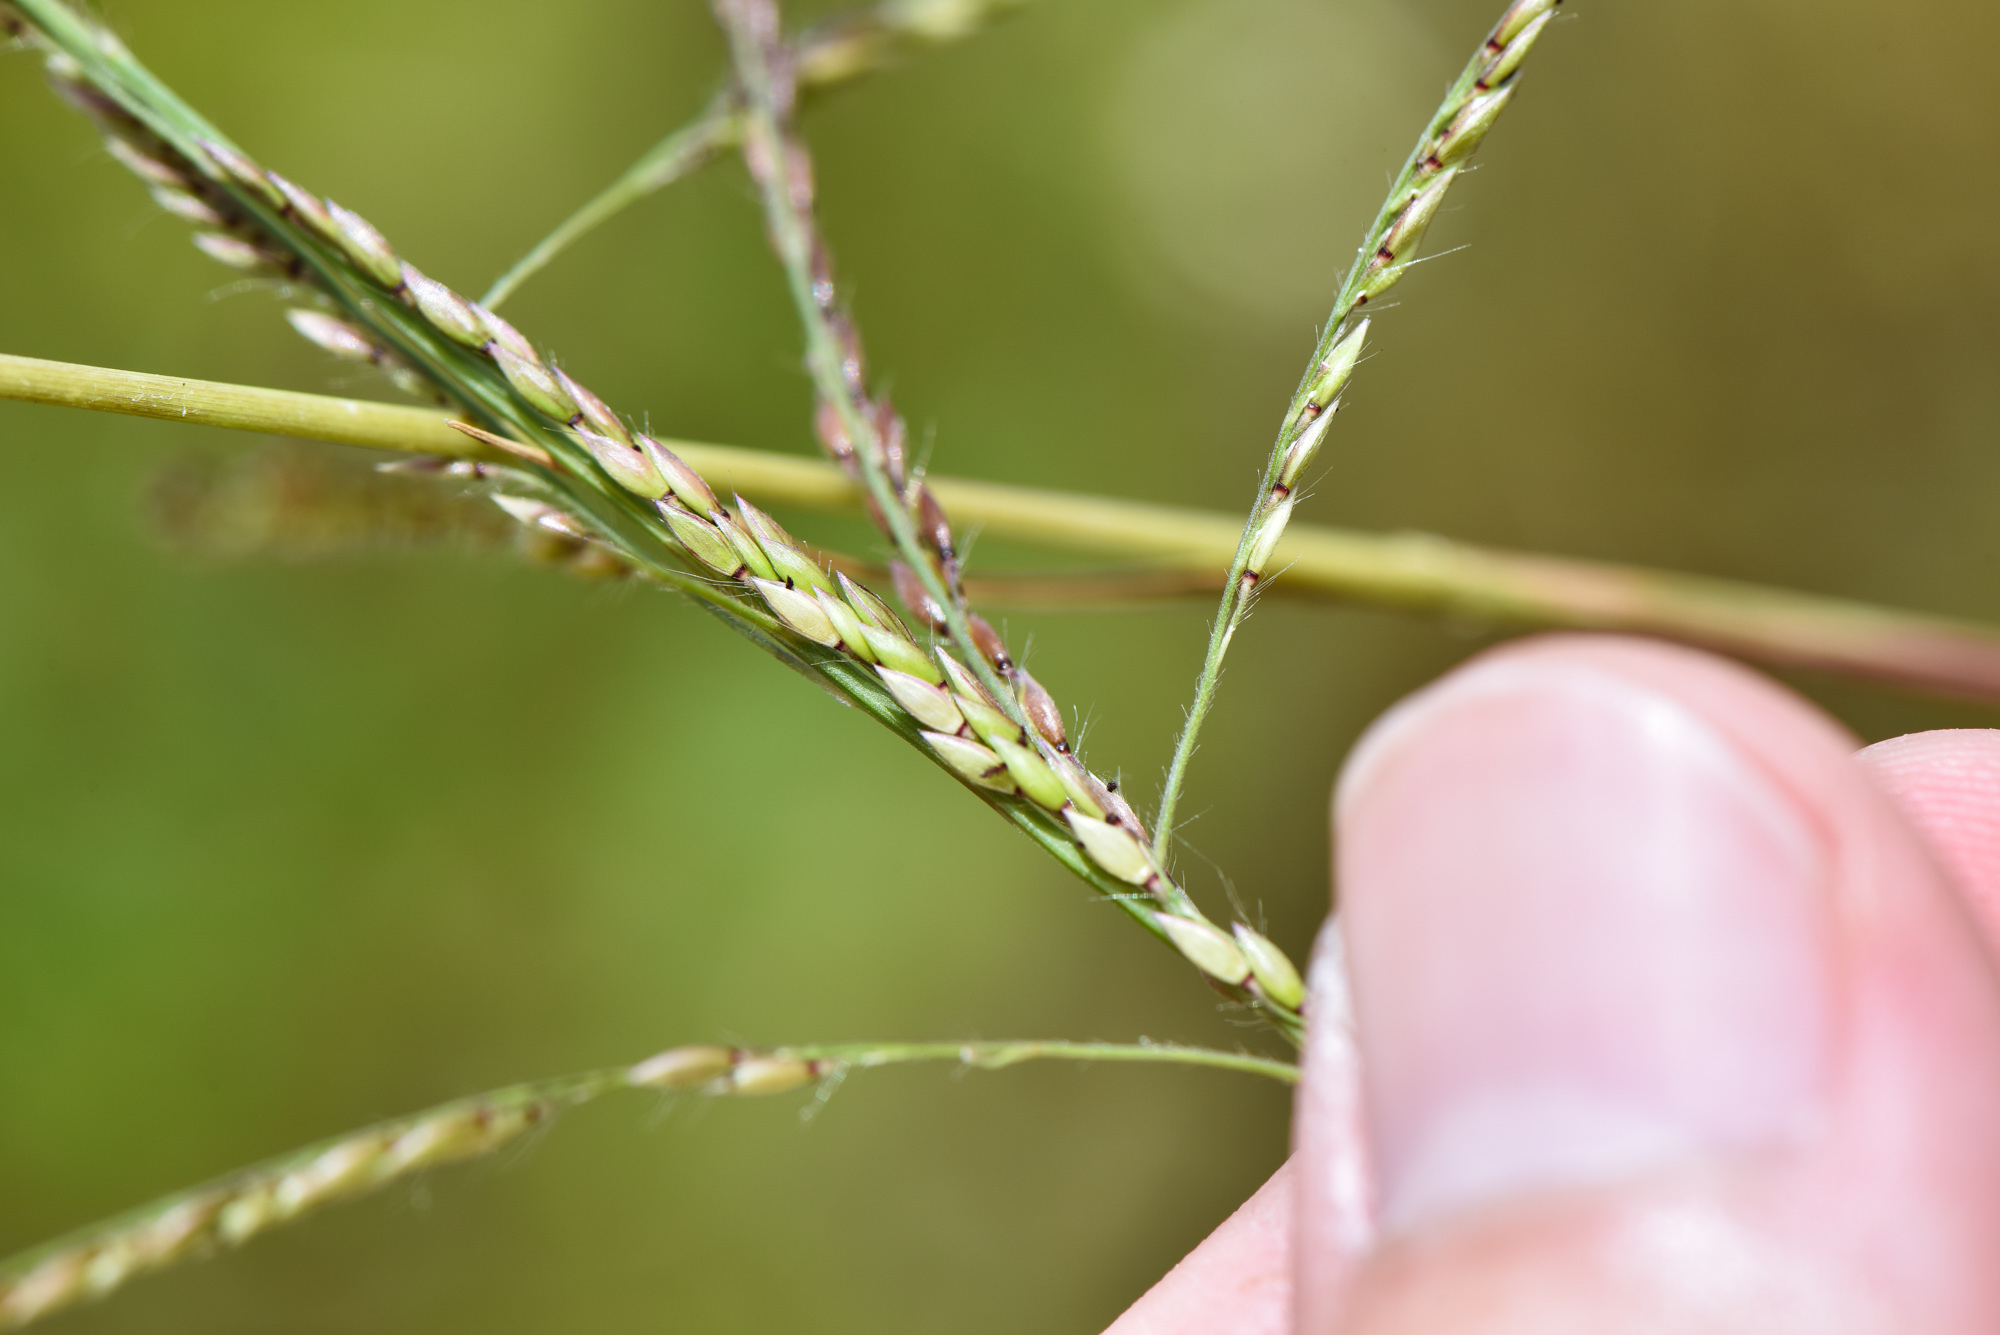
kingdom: Plantae
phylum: Tracheophyta
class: Liliopsida
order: Poales
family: Poaceae
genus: Eriochloa
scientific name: Eriochloa procera
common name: Spring grass
